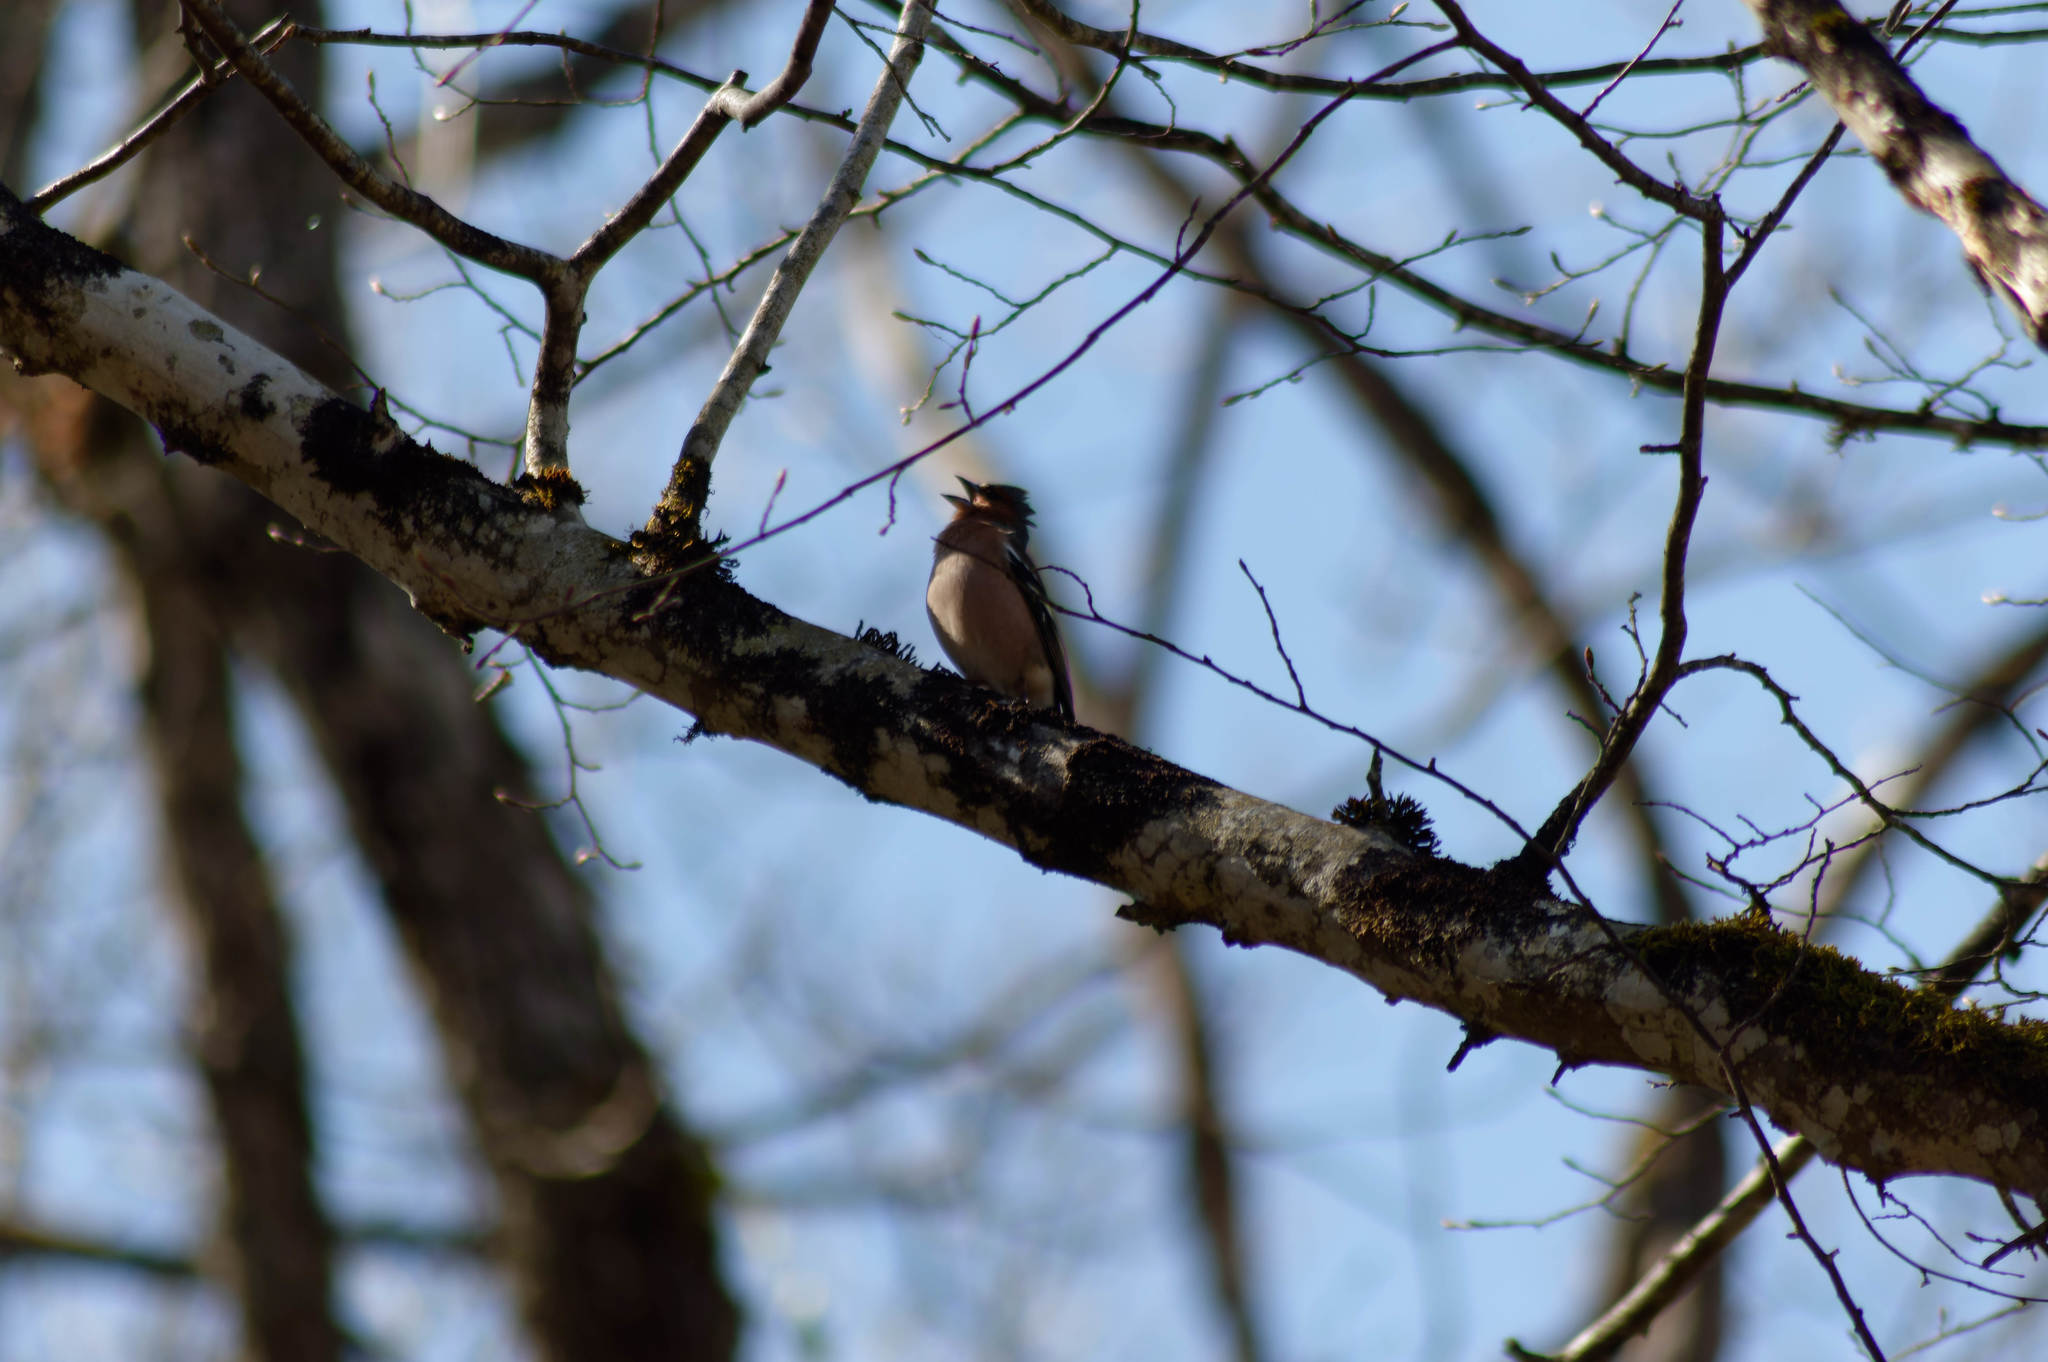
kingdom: Animalia
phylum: Chordata
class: Aves
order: Passeriformes
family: Fringillidae
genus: Fringilla
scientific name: Fringilla coelebs
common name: Common chaffinch
